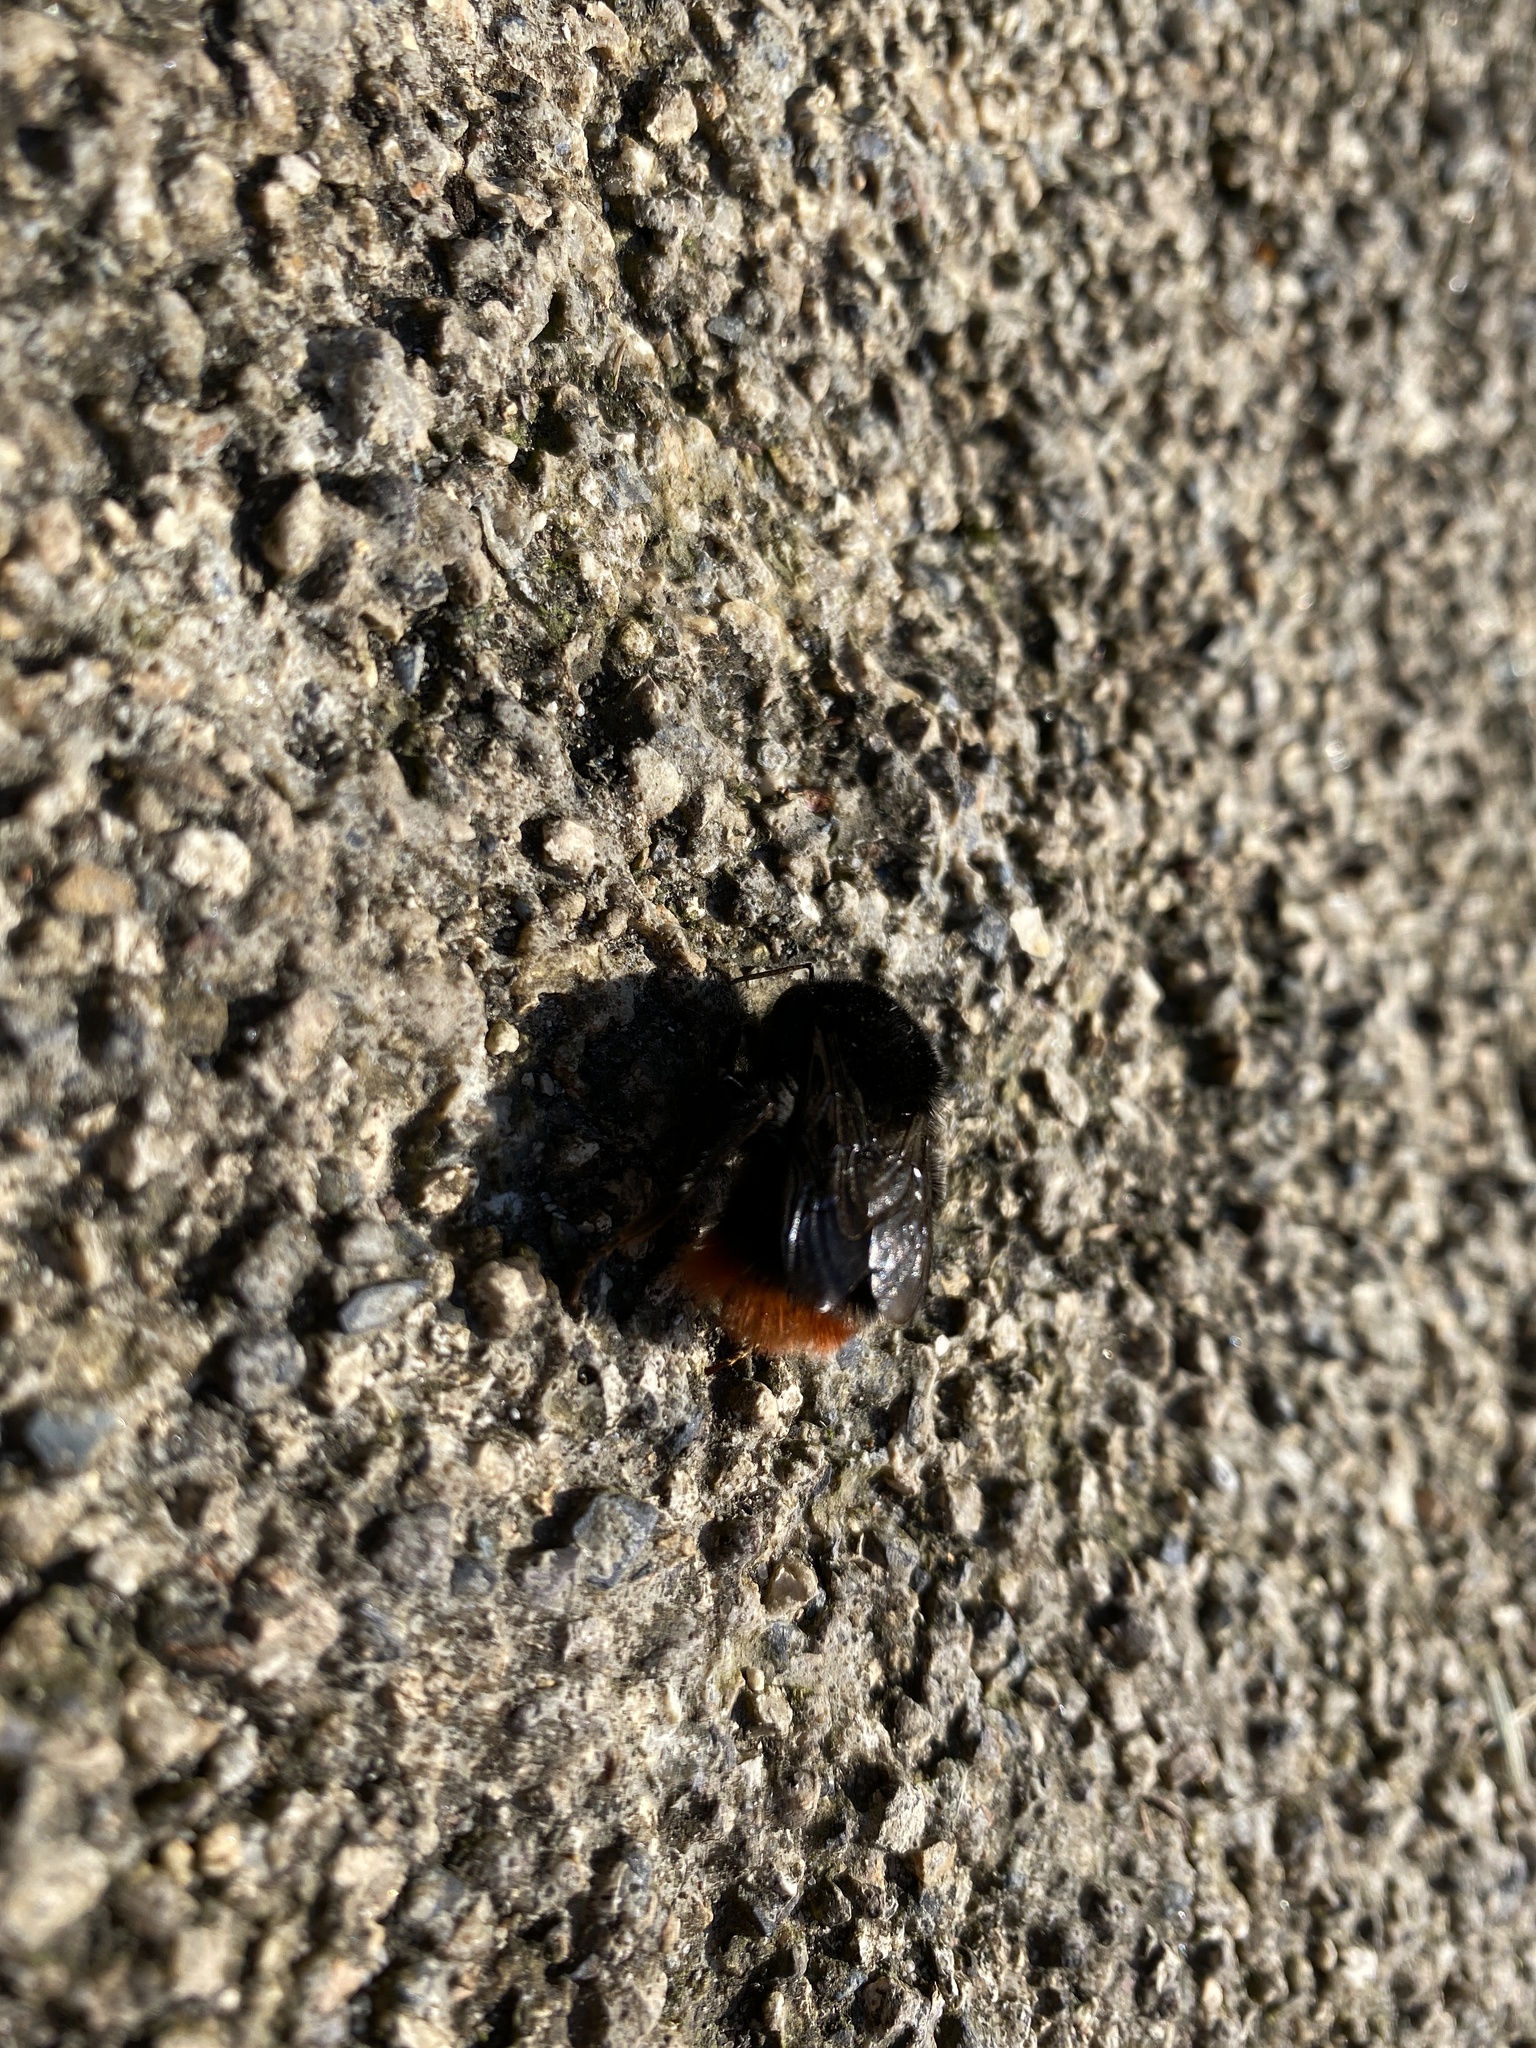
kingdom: Animalia
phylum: Arthropoda
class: Insecta
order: Hymenoptera
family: Apidae
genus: Bombus
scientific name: Bombus lapidarius
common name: Large red-tailed humble-bee
